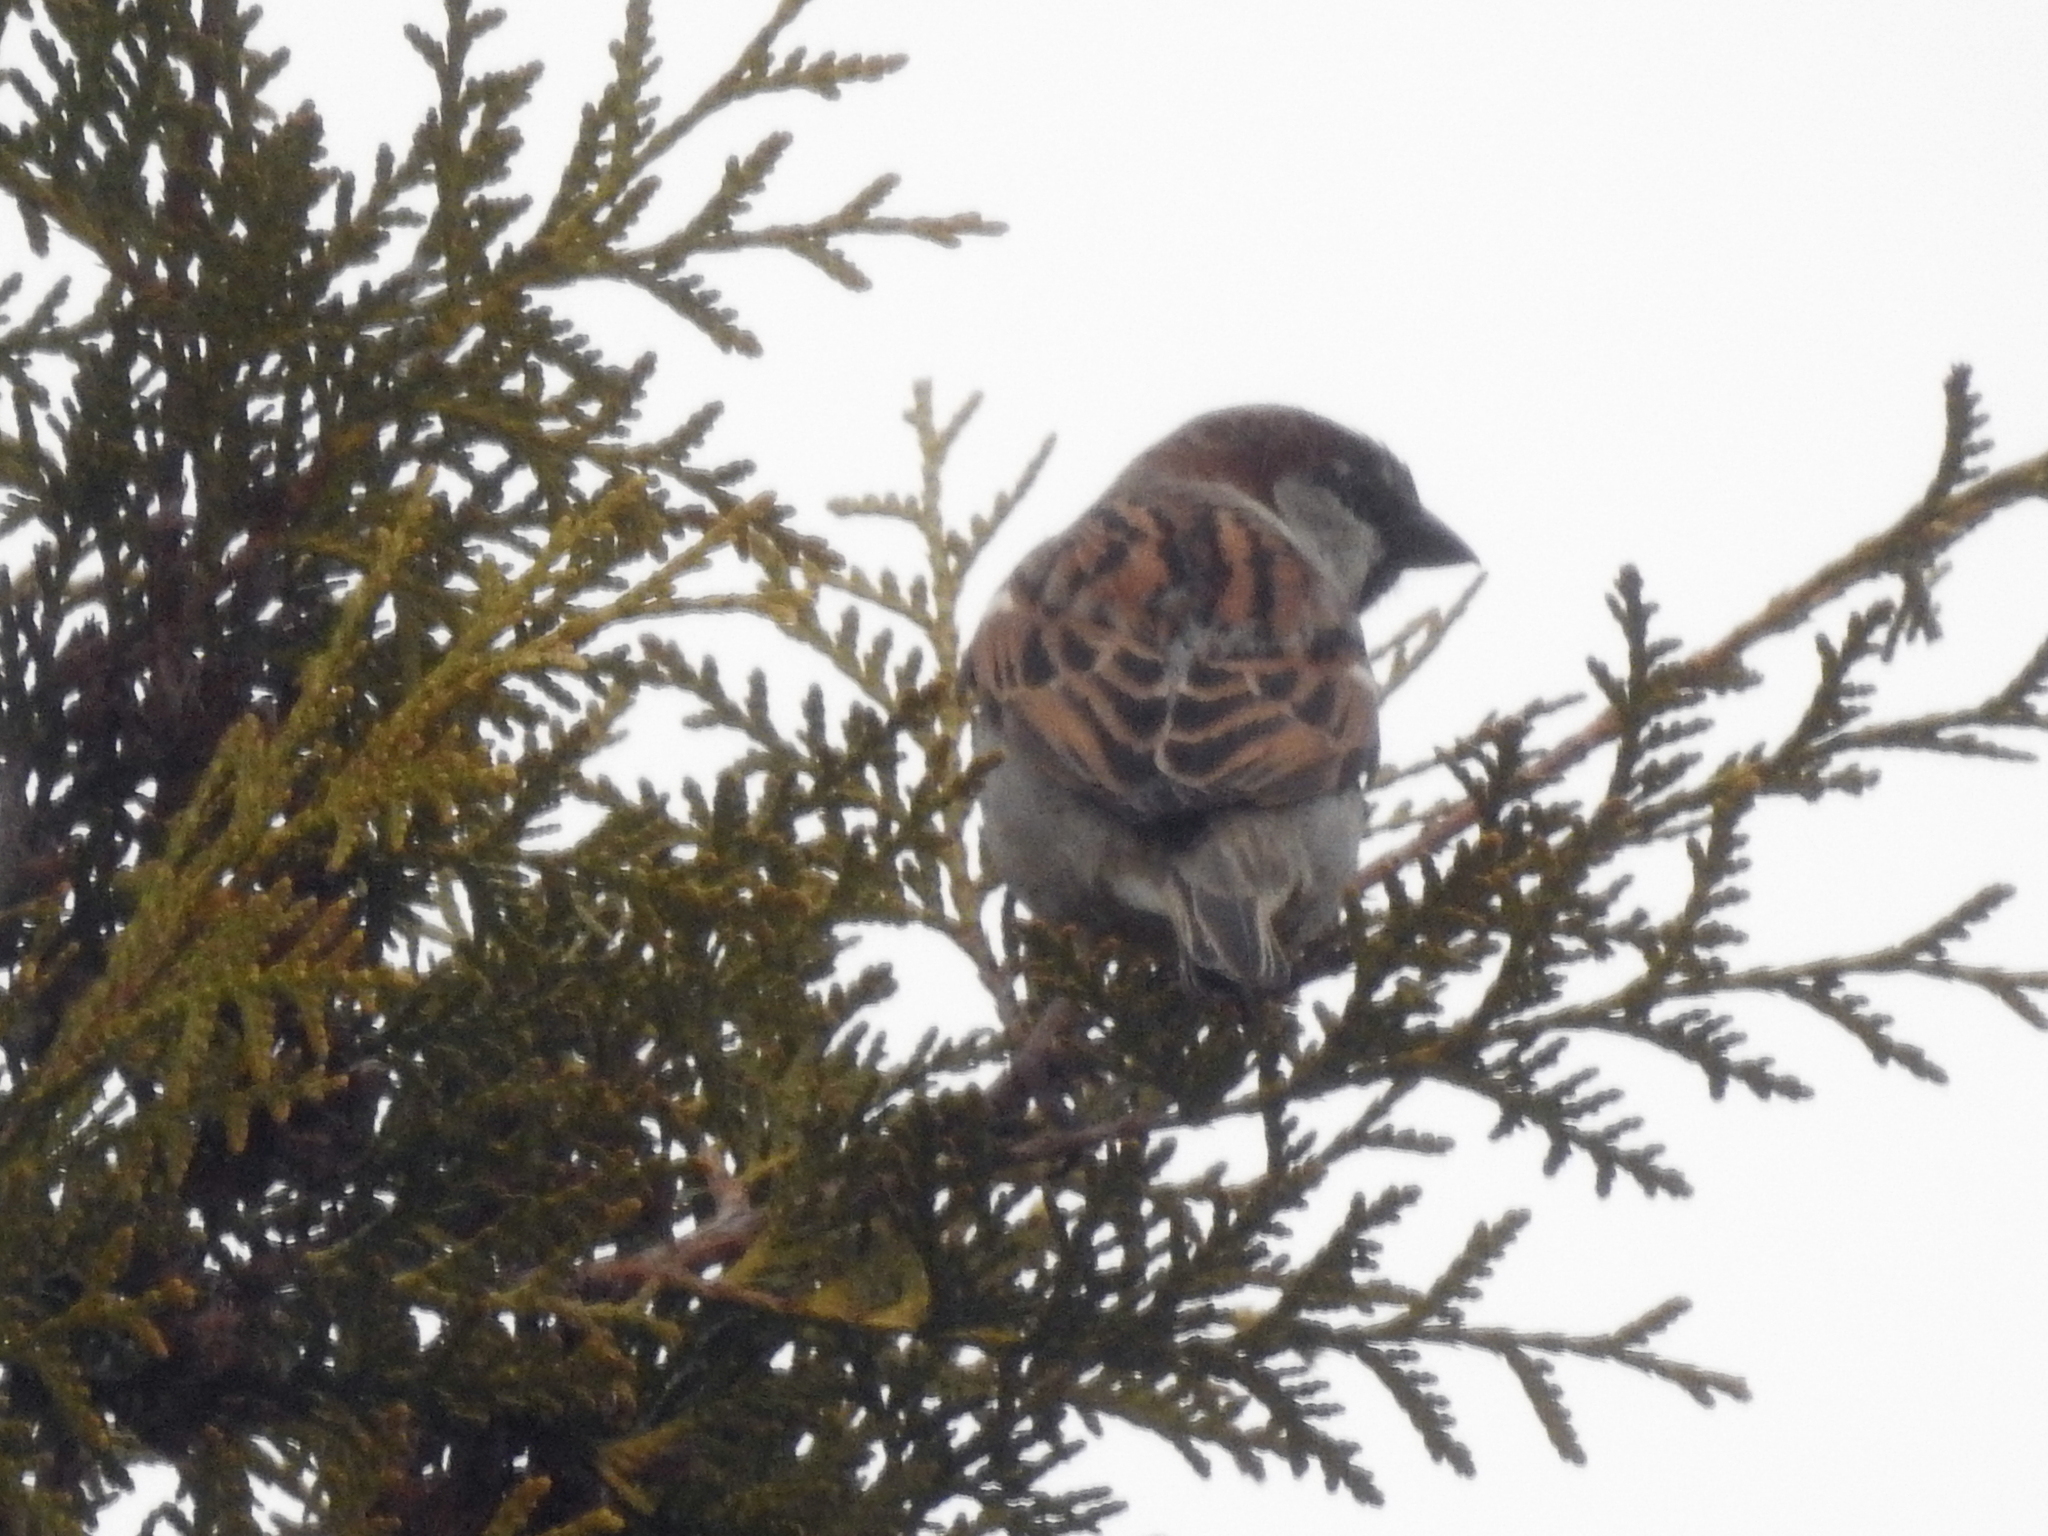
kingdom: Animalia
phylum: Chordata
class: Aves
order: Passeriformes
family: Passeridae
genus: Passer
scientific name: Passer domesticus
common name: House sparrow
